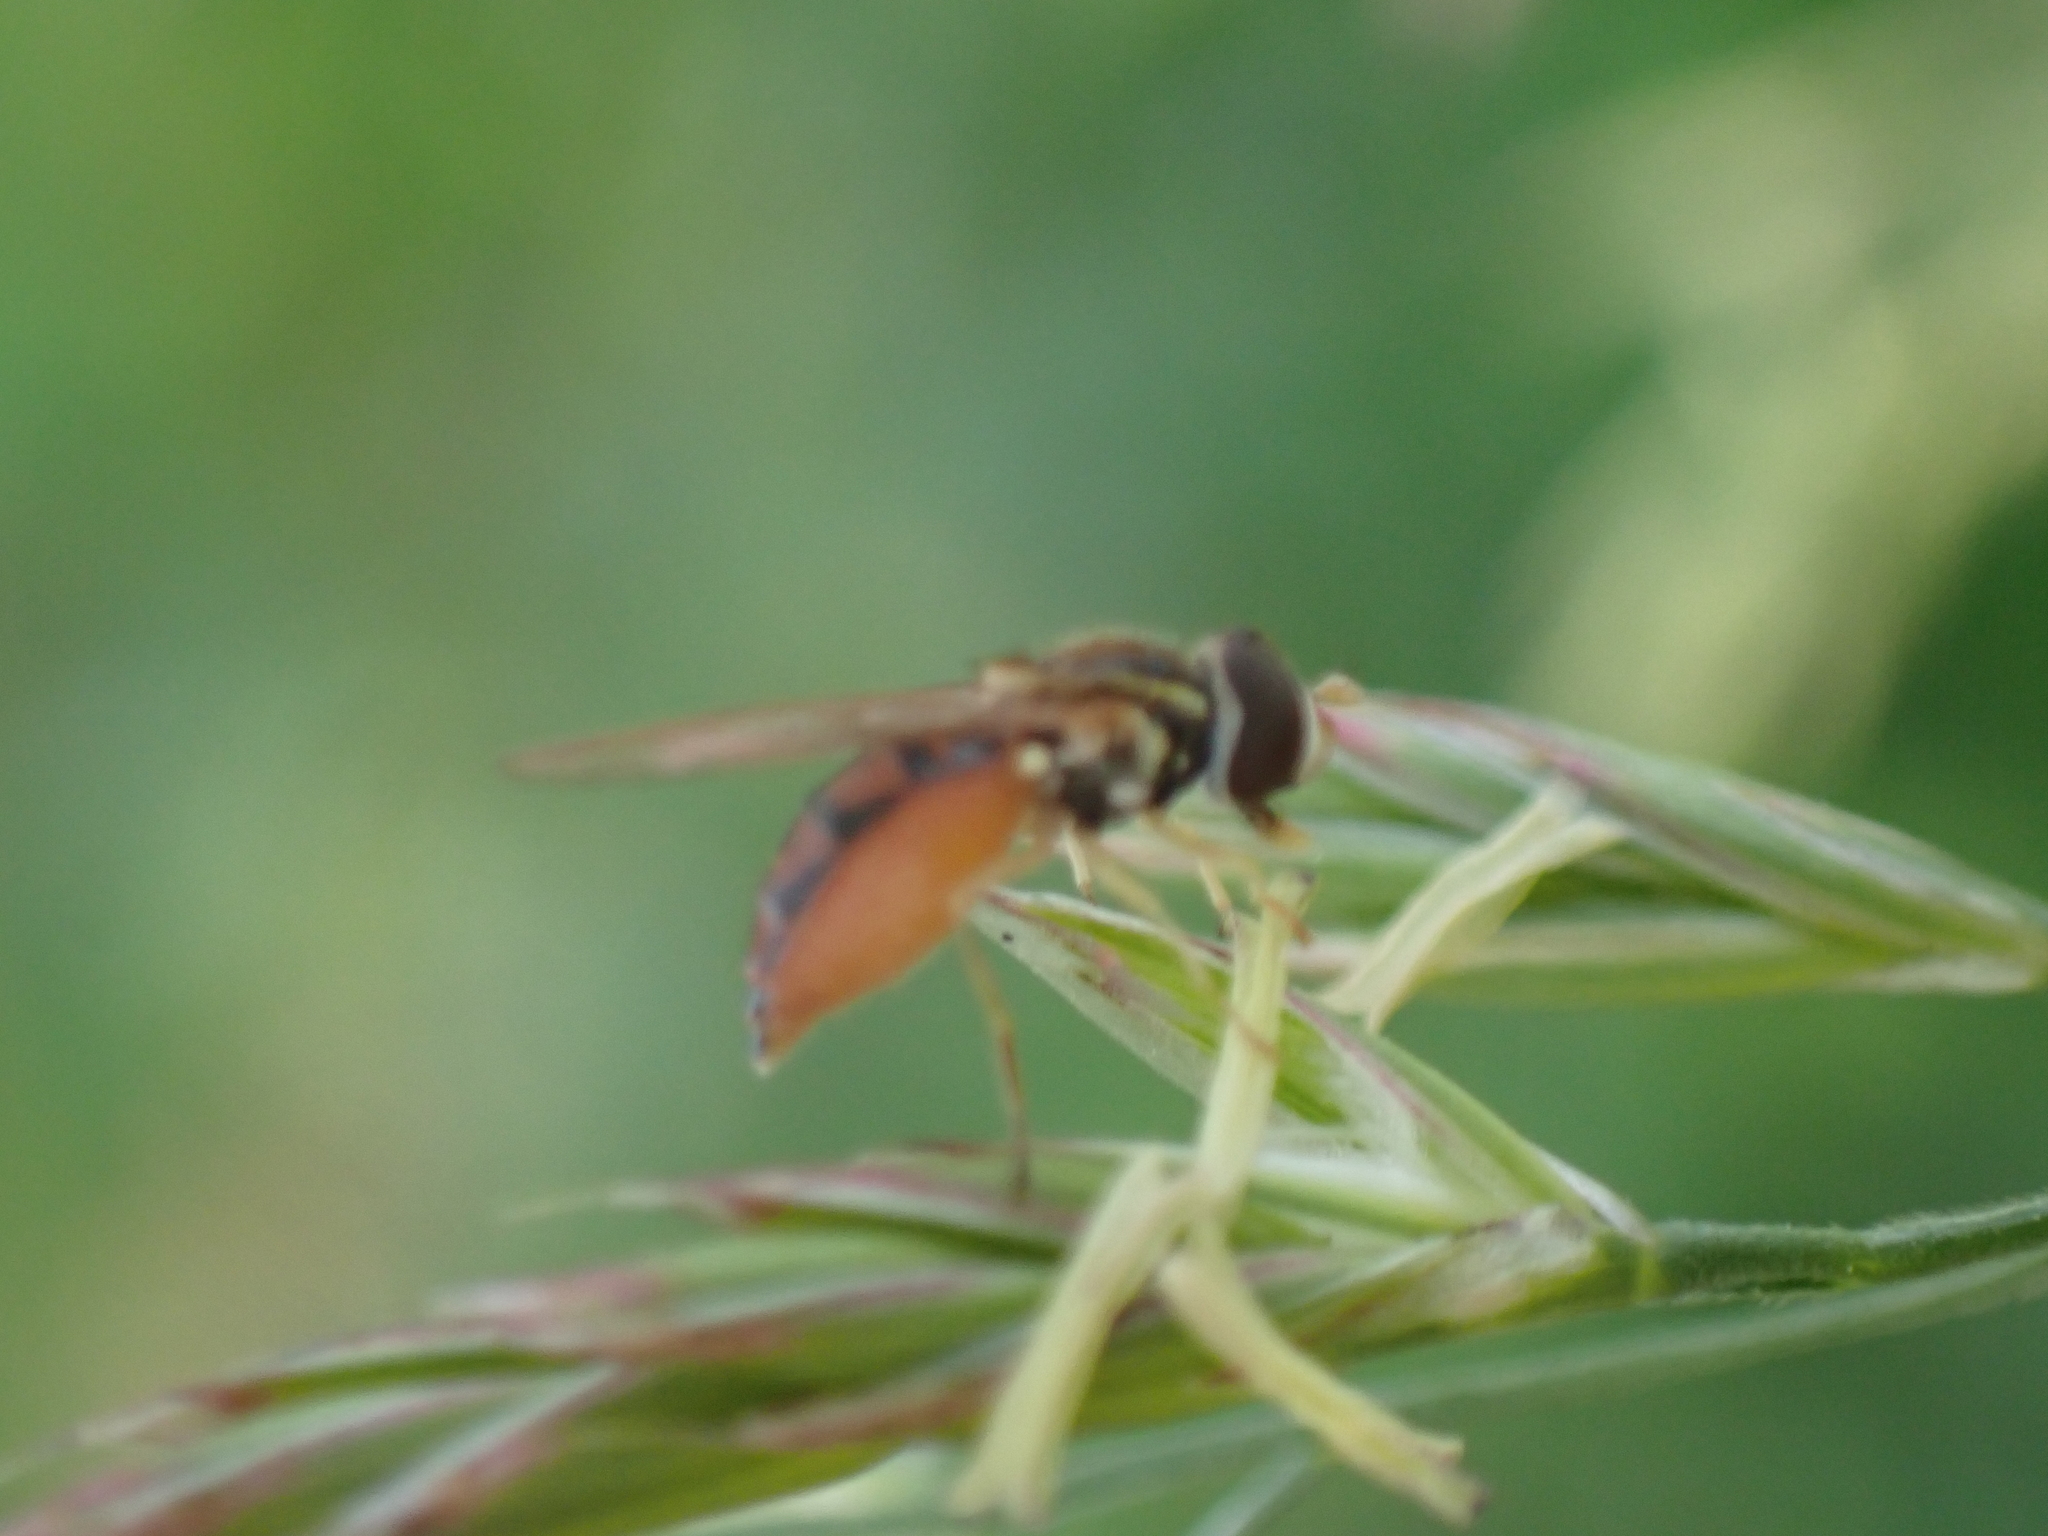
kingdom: Animalia
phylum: Arthropoda
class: Insecta
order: Diptera
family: Syrphidae
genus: Toxomerus
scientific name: Toxomerus marginatus
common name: Syrphid fly
